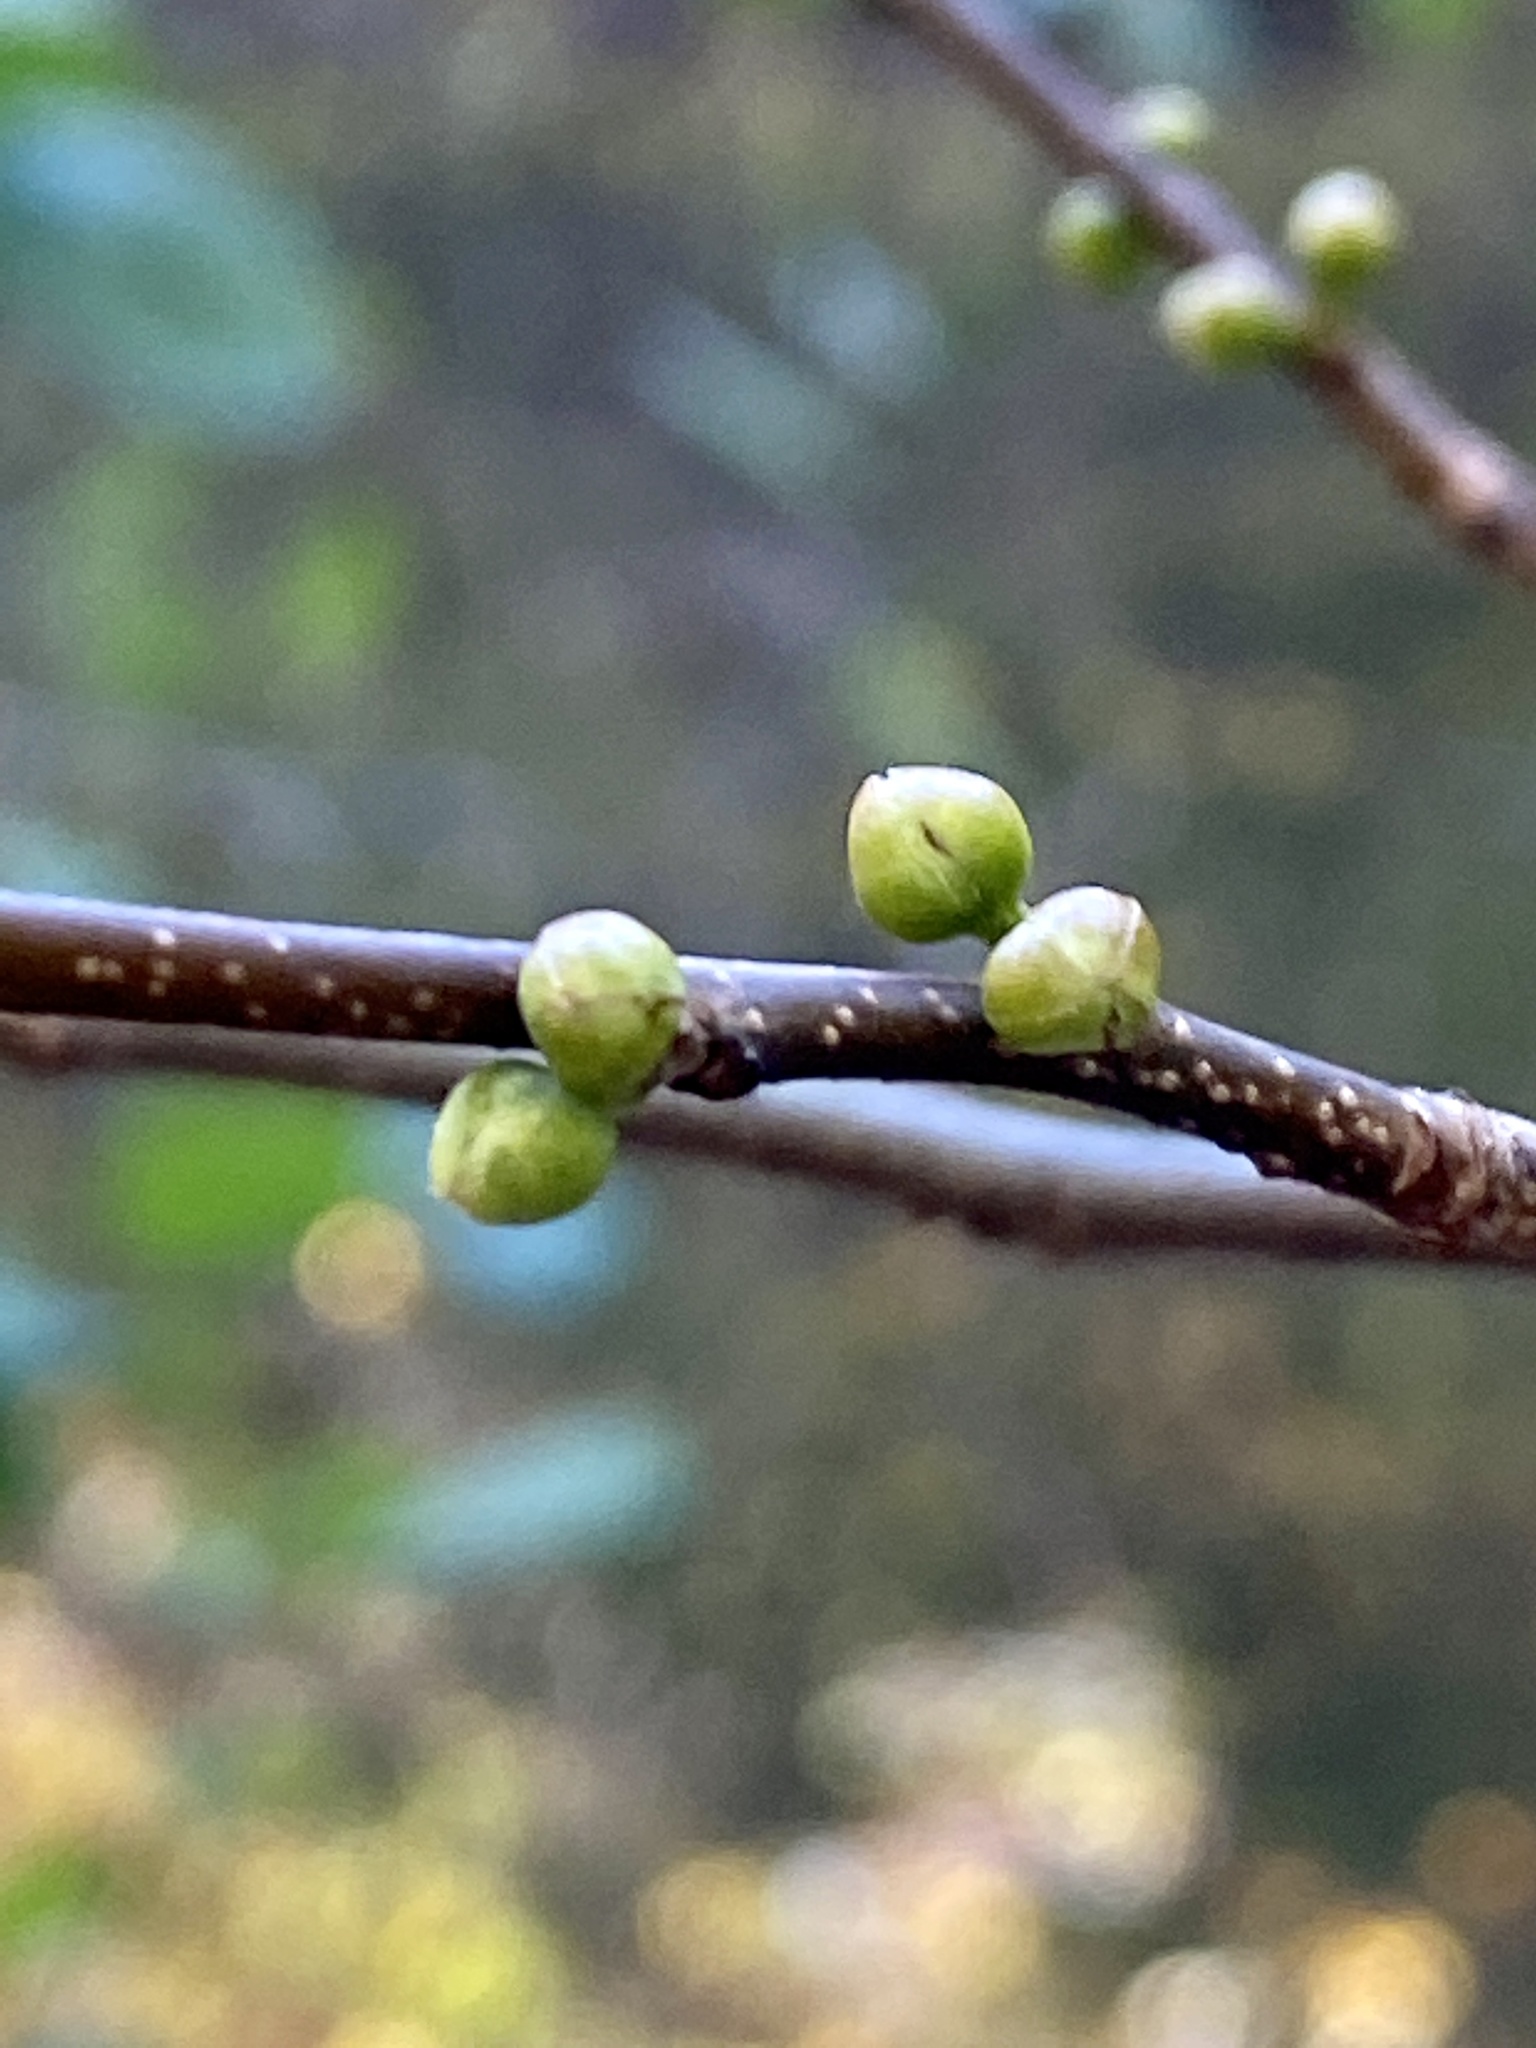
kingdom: Plantae
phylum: Tracheophyta
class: Magnoliopsida
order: Laurales
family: Lauraceae
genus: Lindera
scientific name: Lindera benzoin
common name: Spicebush
